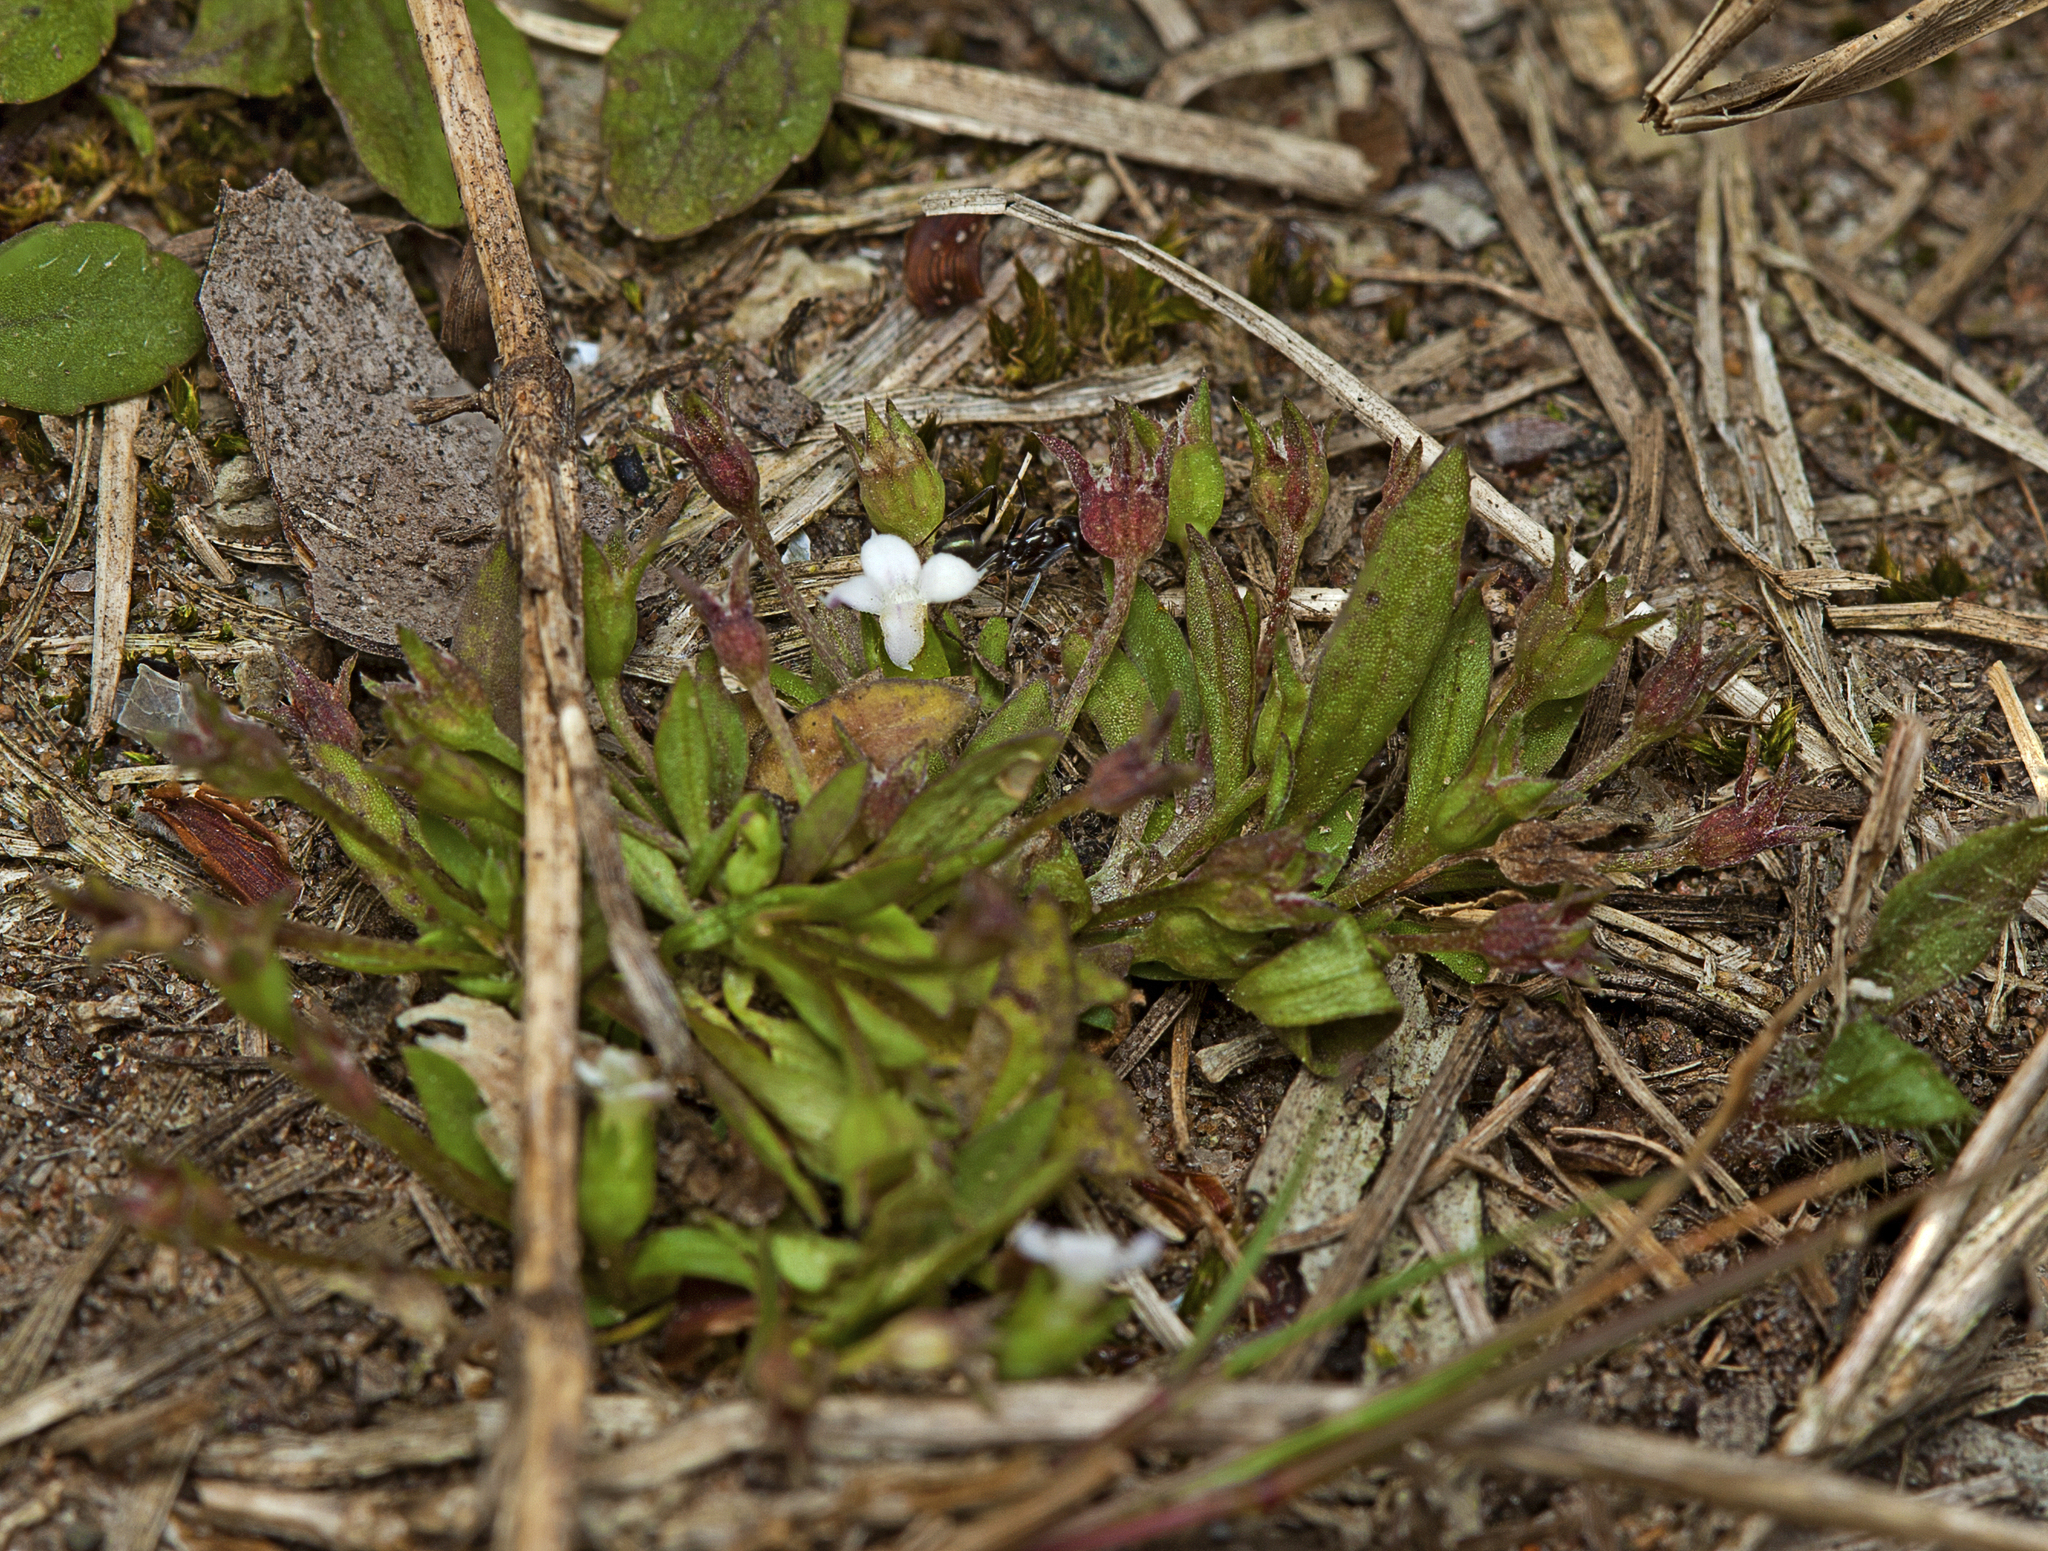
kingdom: Plantae
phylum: Tracheophyta
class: Magnoliopsida
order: Gentianales
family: Rubiaceae
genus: Oldenlandia
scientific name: Oldenlandia corymbosa
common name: Flat-top mille graines
